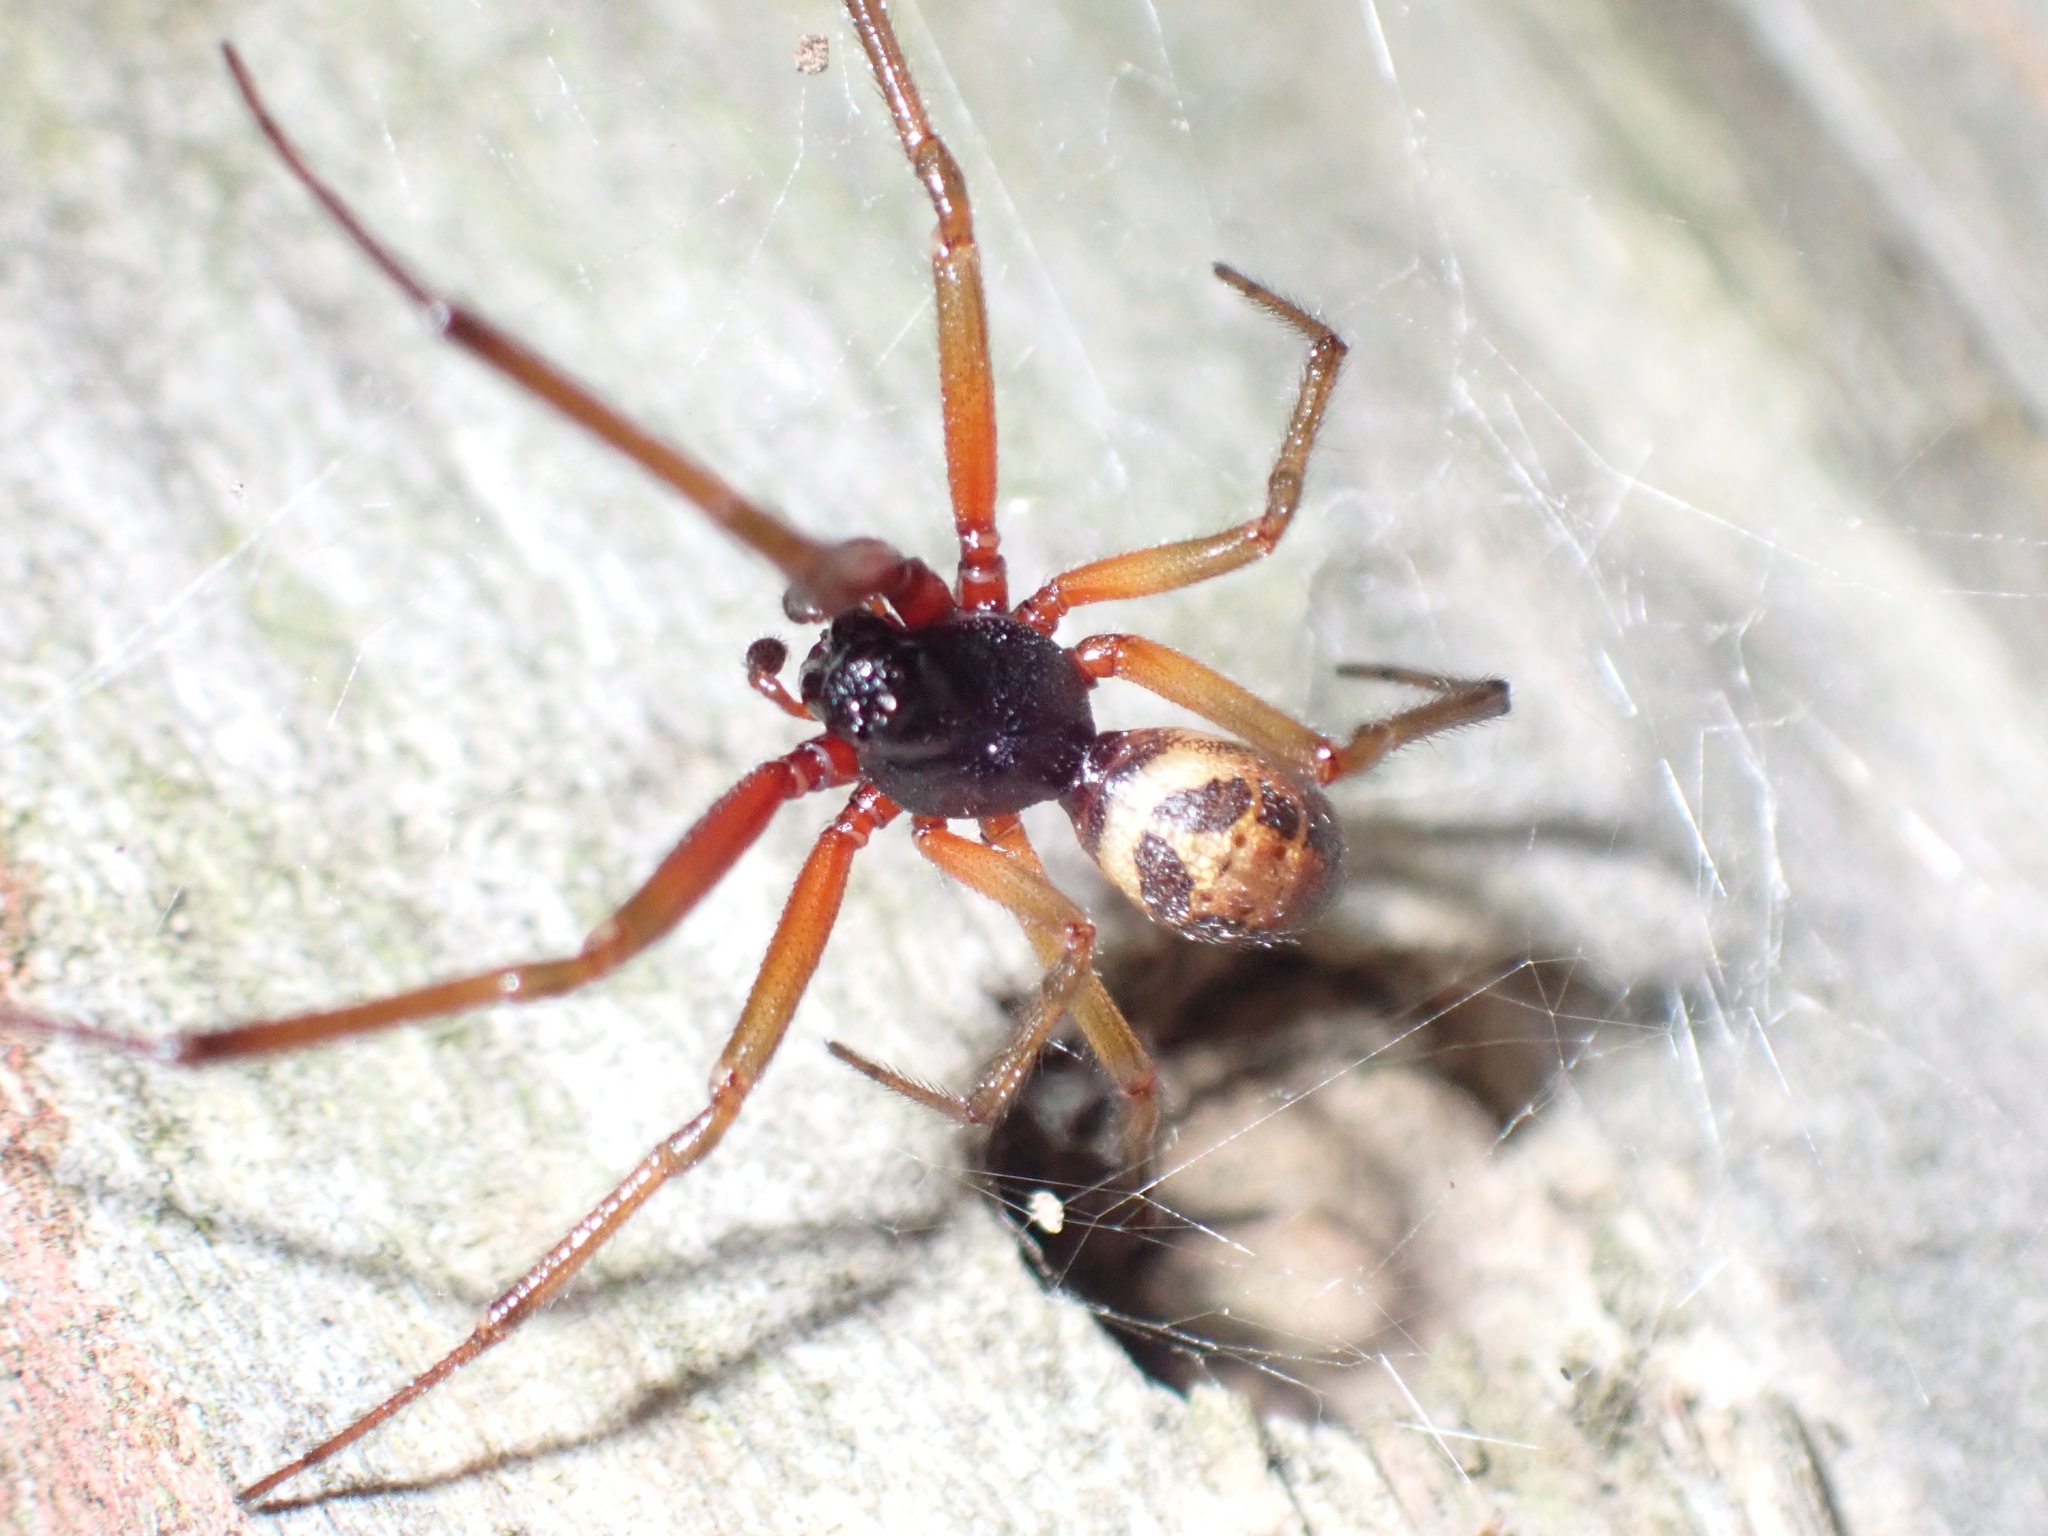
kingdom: Animalia
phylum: Arthropoda
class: Arachnida
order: Araneae
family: Theridiidae
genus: Steatoda
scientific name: Steatoda nobilis
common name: Cobweb weaver
